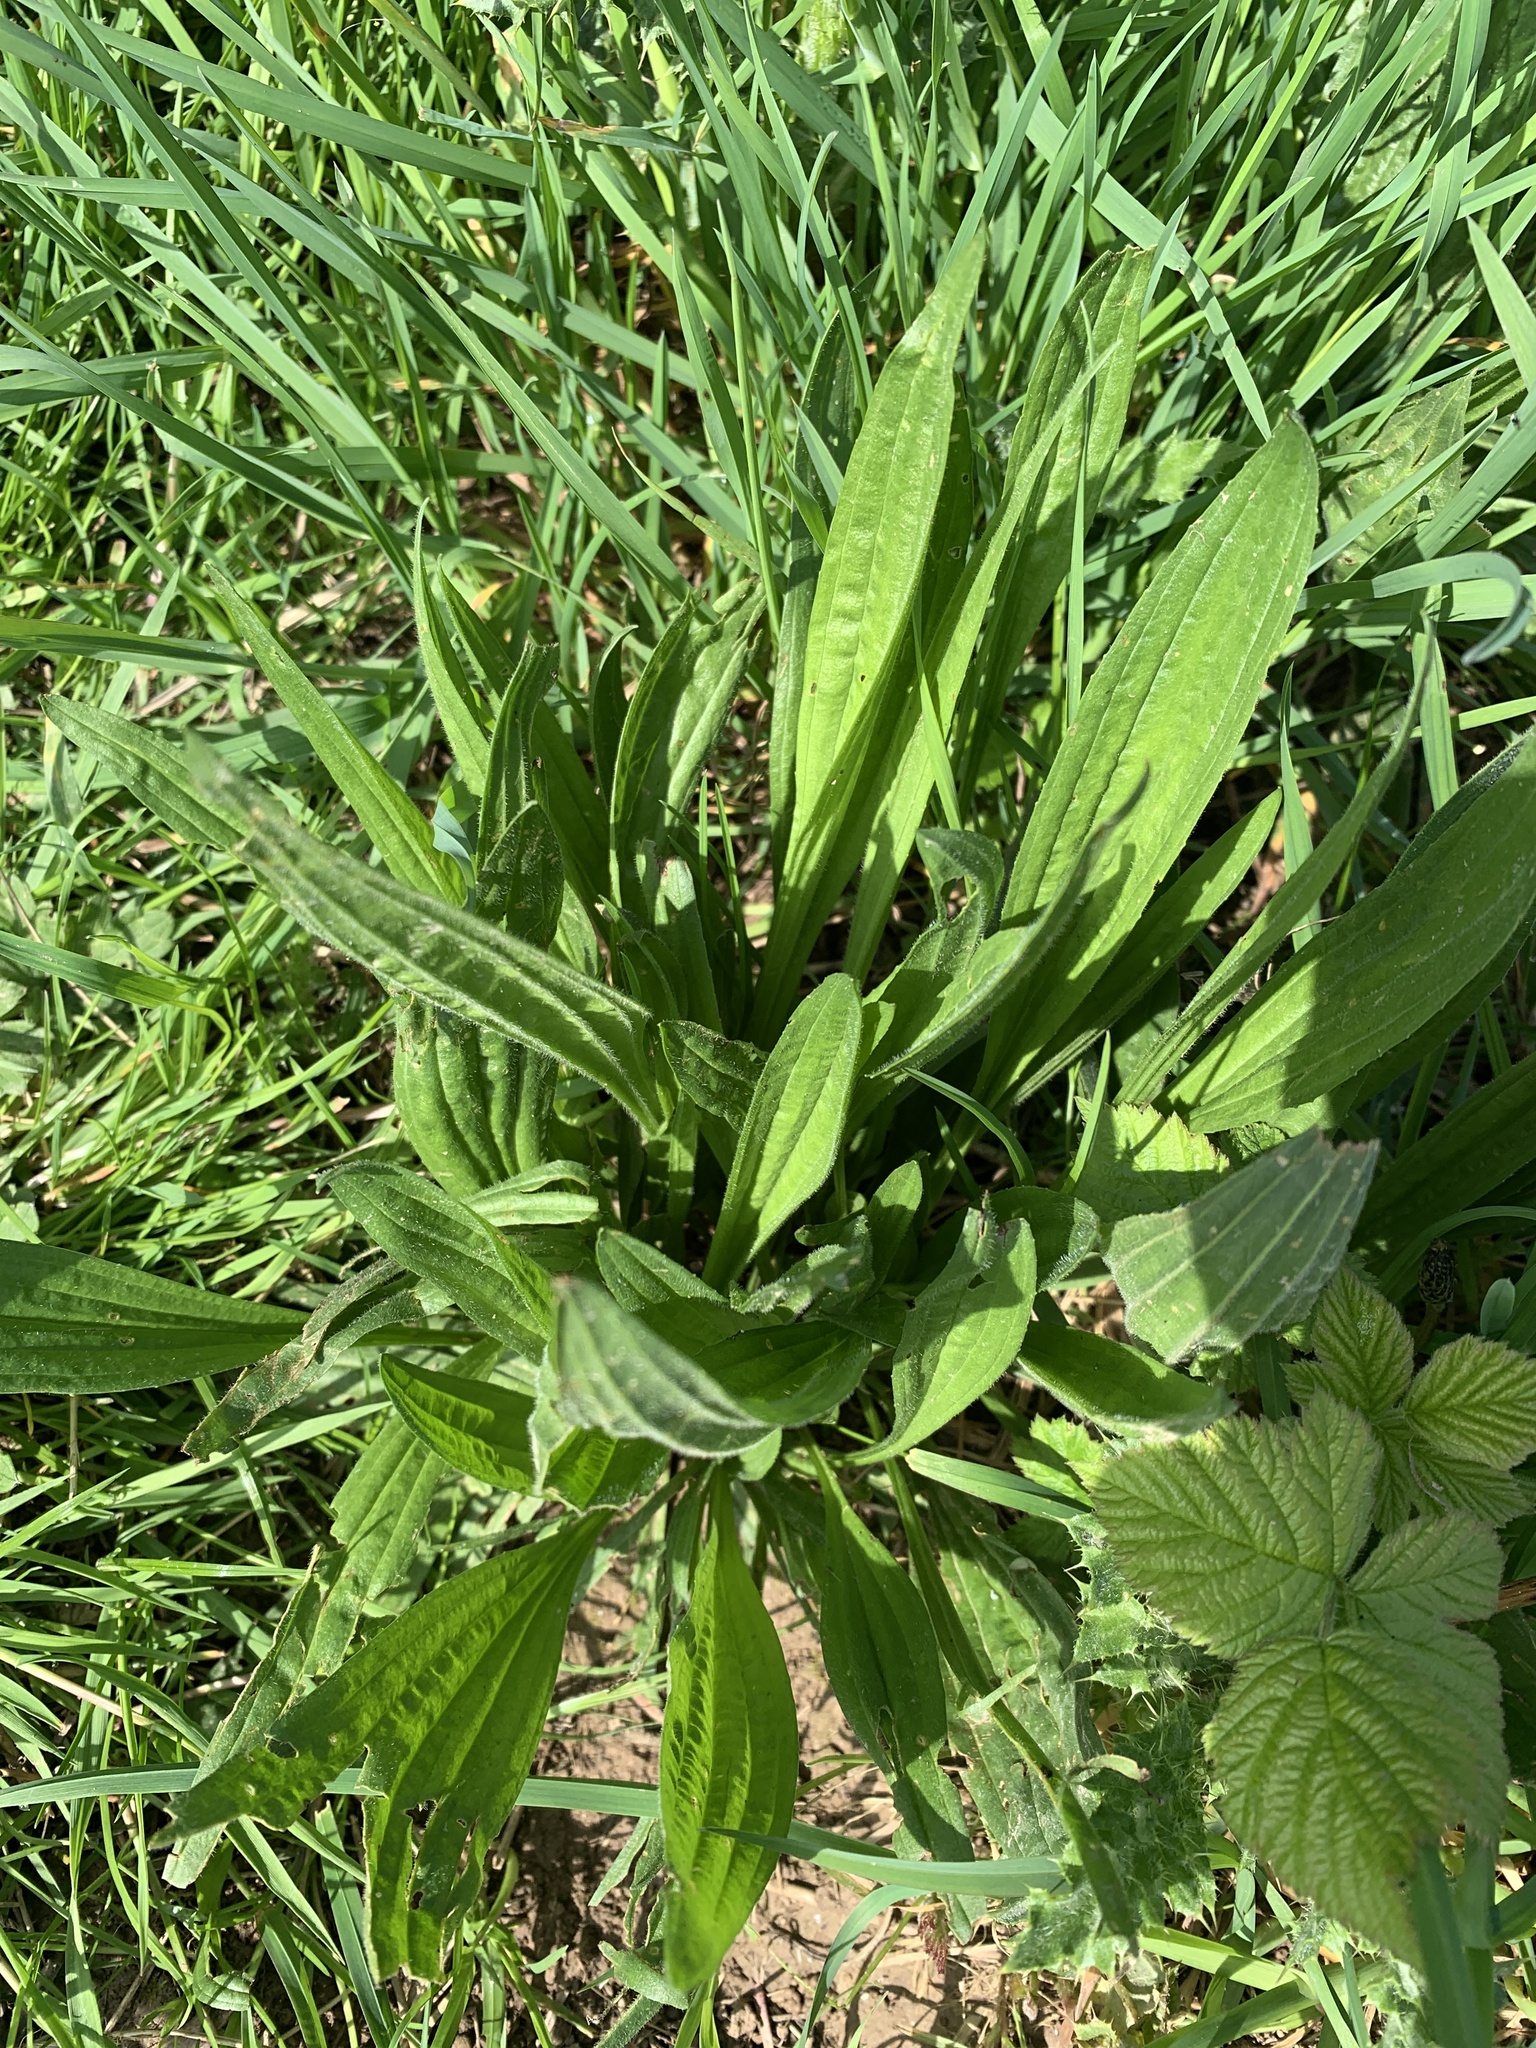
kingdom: Plantae
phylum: Tracheophyta
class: Magnoliopsida
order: Lamiales
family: Plantaginaceae
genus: Plantago
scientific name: Plantago lanceolata
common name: Ribwort plantain
